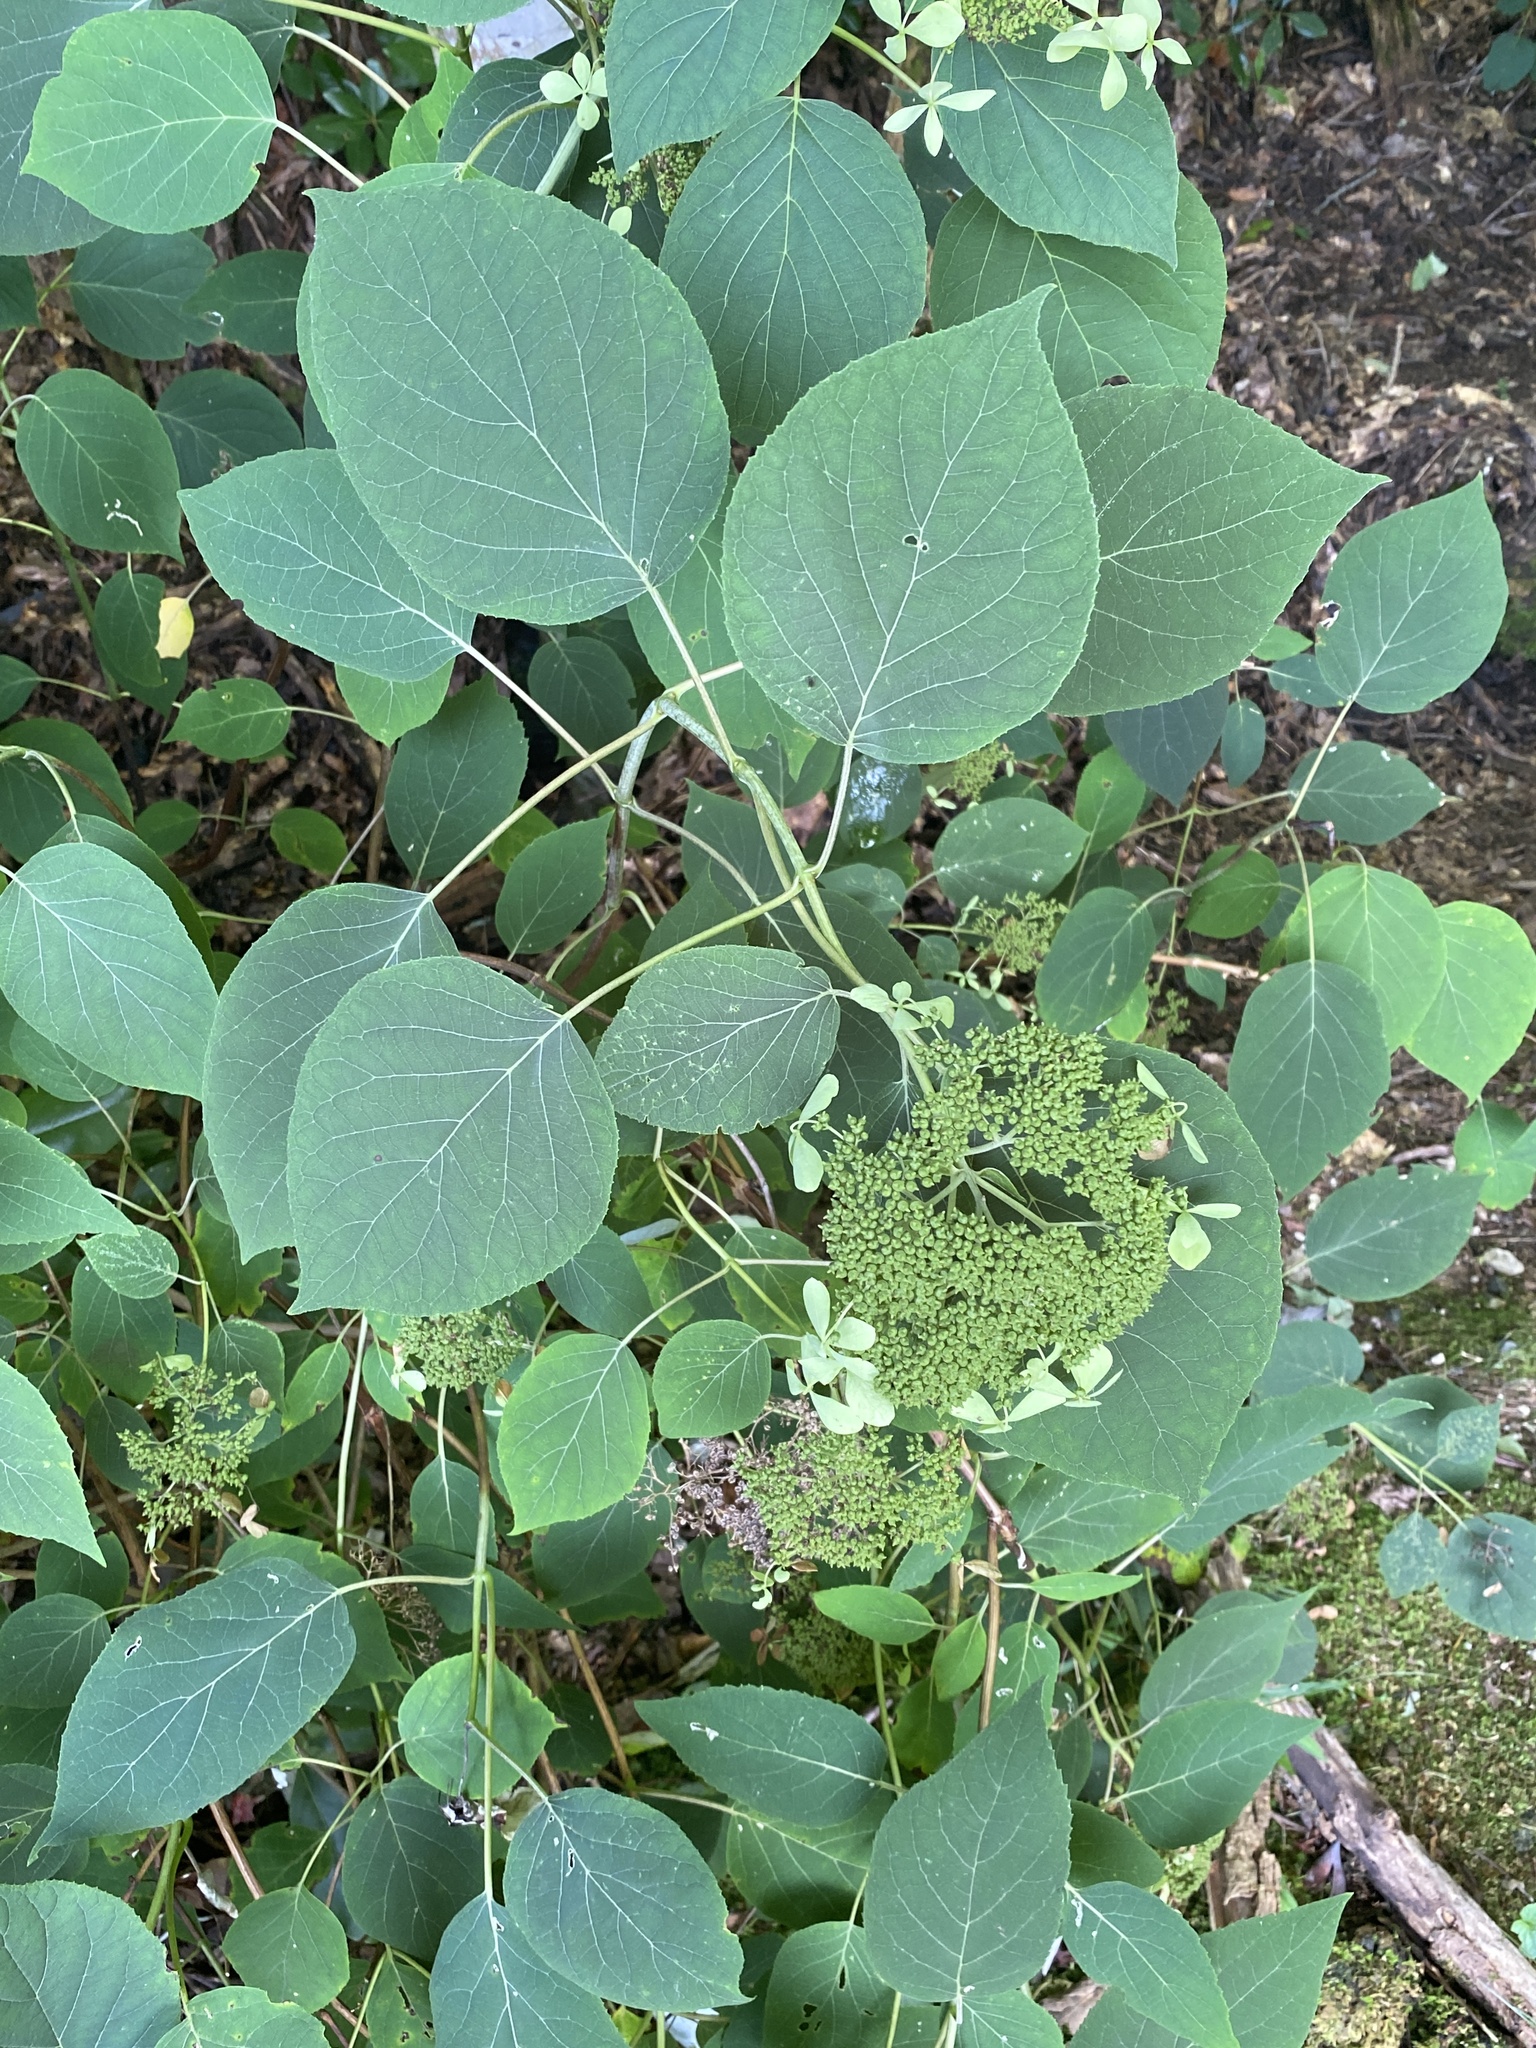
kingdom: Plantae
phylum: Tracheophyta
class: Magnoliopsida
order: Cornales
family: Hydrangeaceae
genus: Hydrangea
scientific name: Hydrangea radiata
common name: Silverleaf hydrangea
